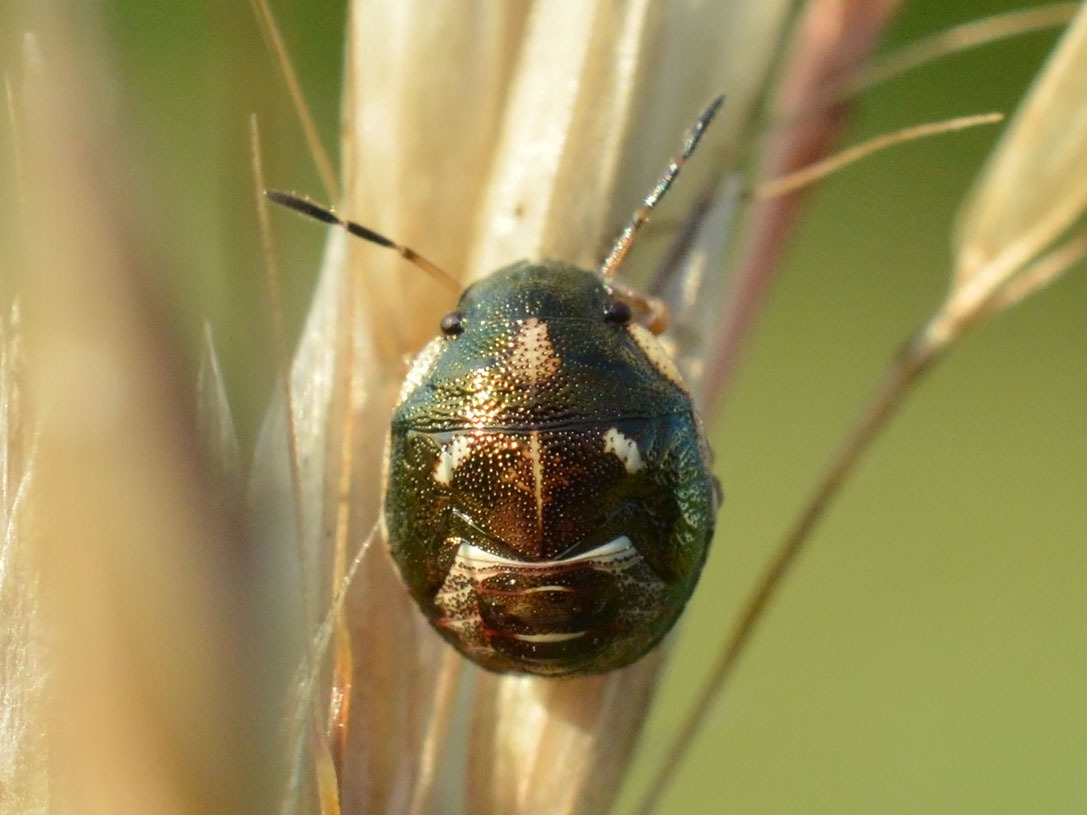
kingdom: Animalia
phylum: Arthropoda
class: Insecta
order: Hemiptera
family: Pentatomidae
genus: Rubiconia
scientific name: Rubiconia intermedia
